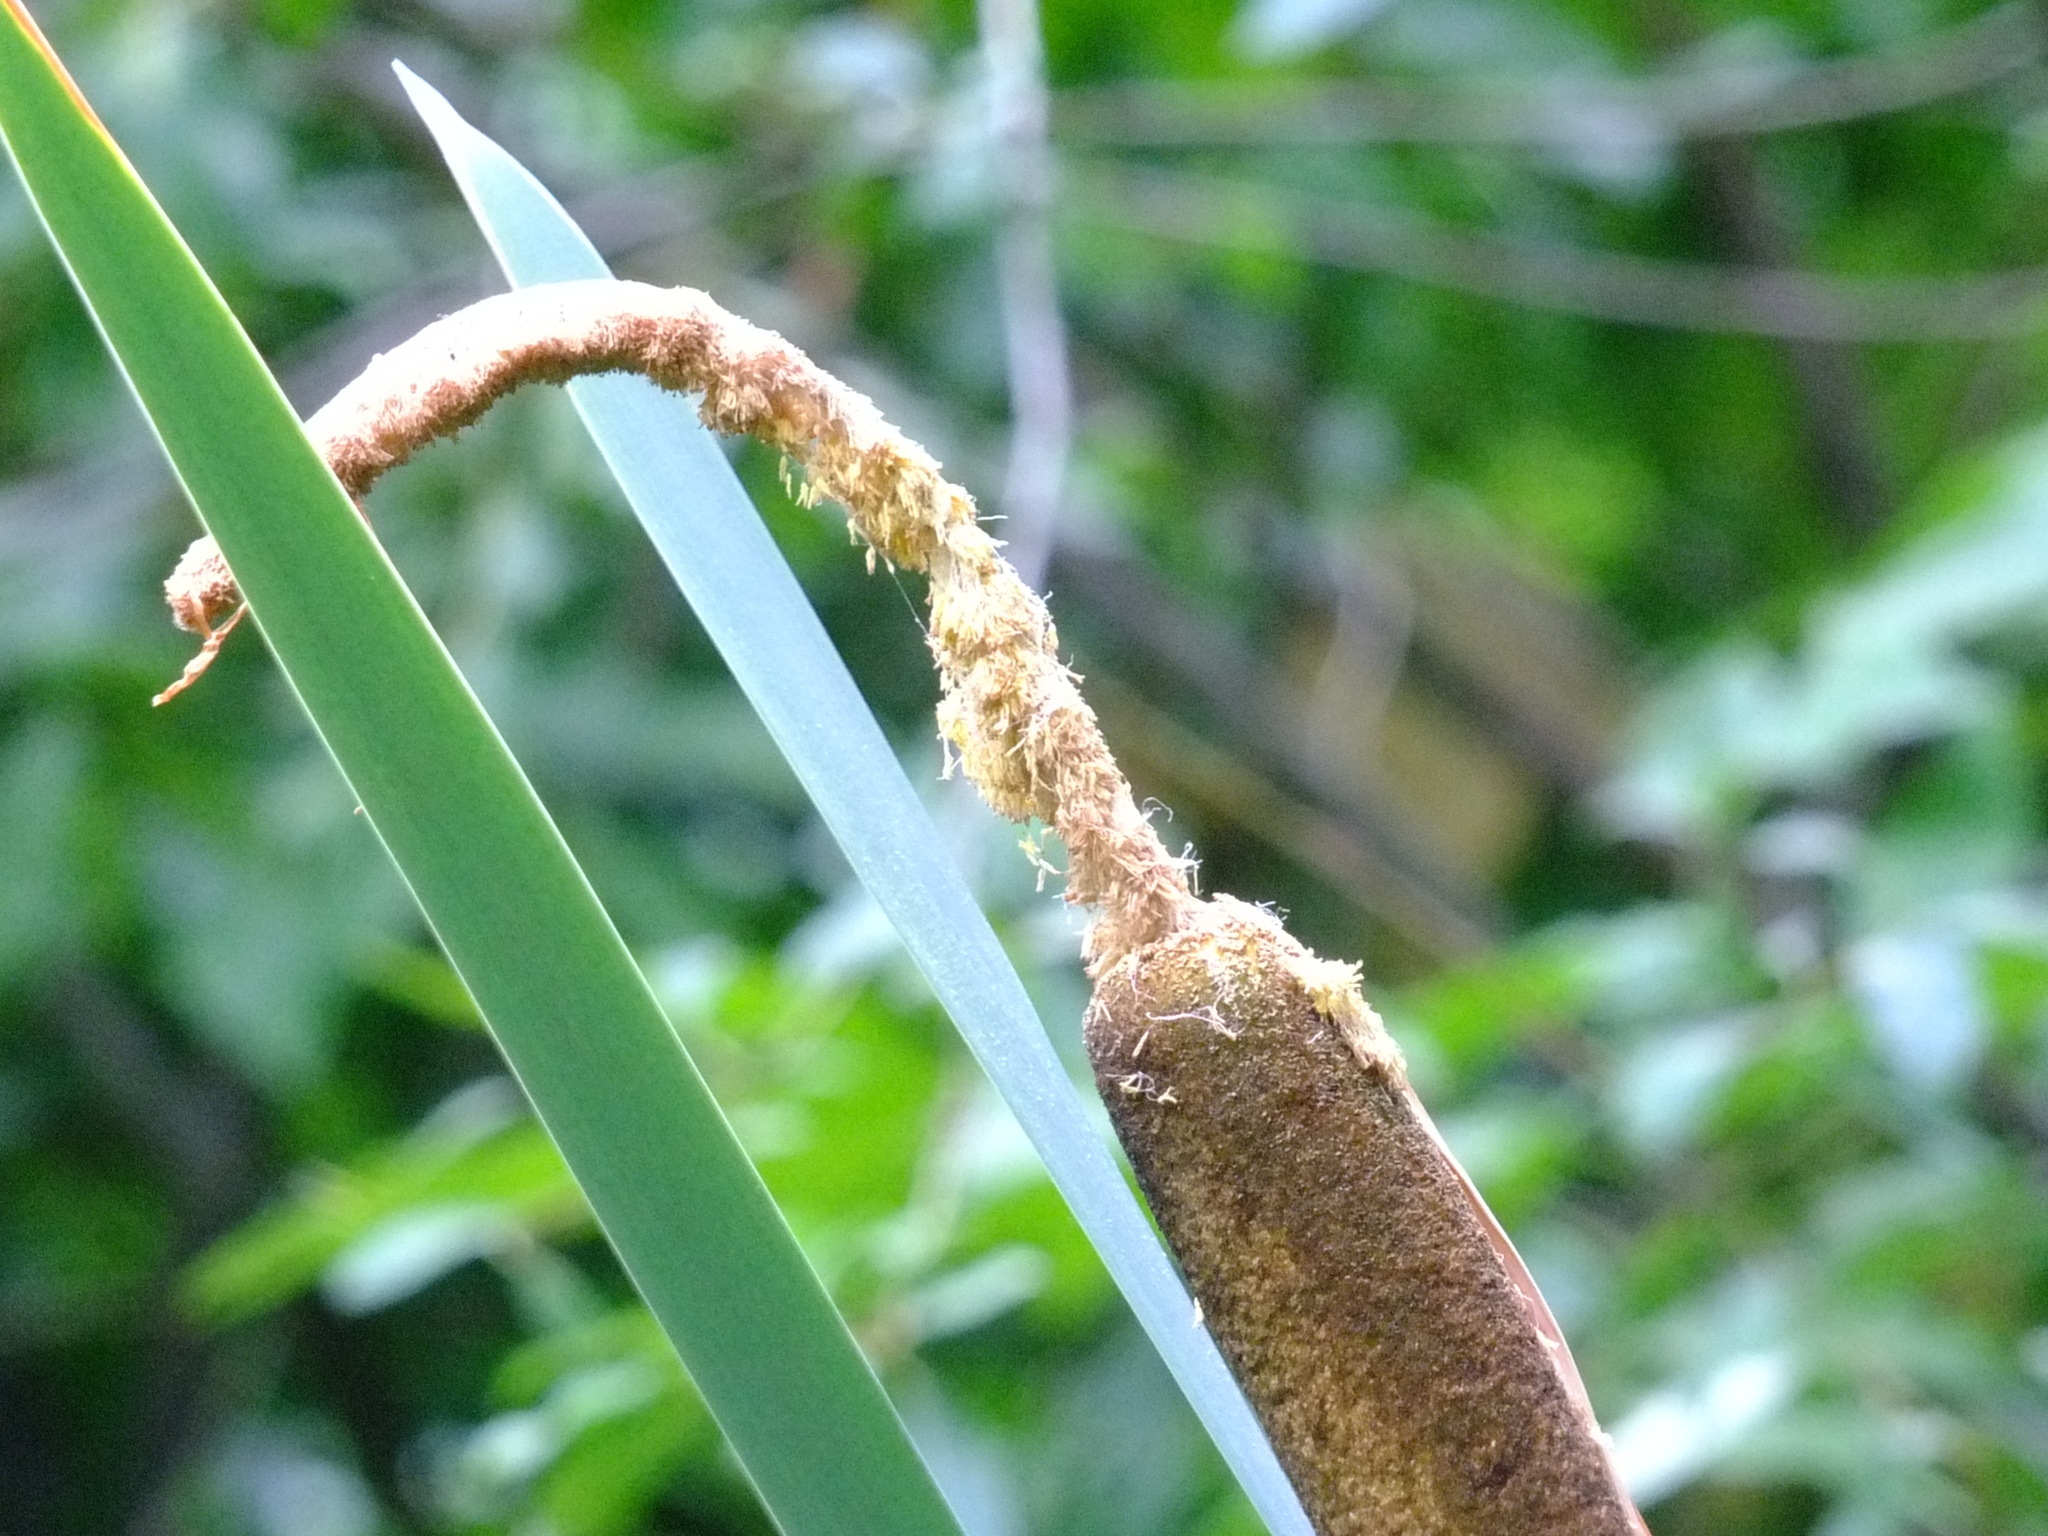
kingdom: Plantae
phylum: Tracheophyta
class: Liliopsida
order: Poales
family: Typhaceae
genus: Typha
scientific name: Typha latifolia
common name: Broadleaf cattail
